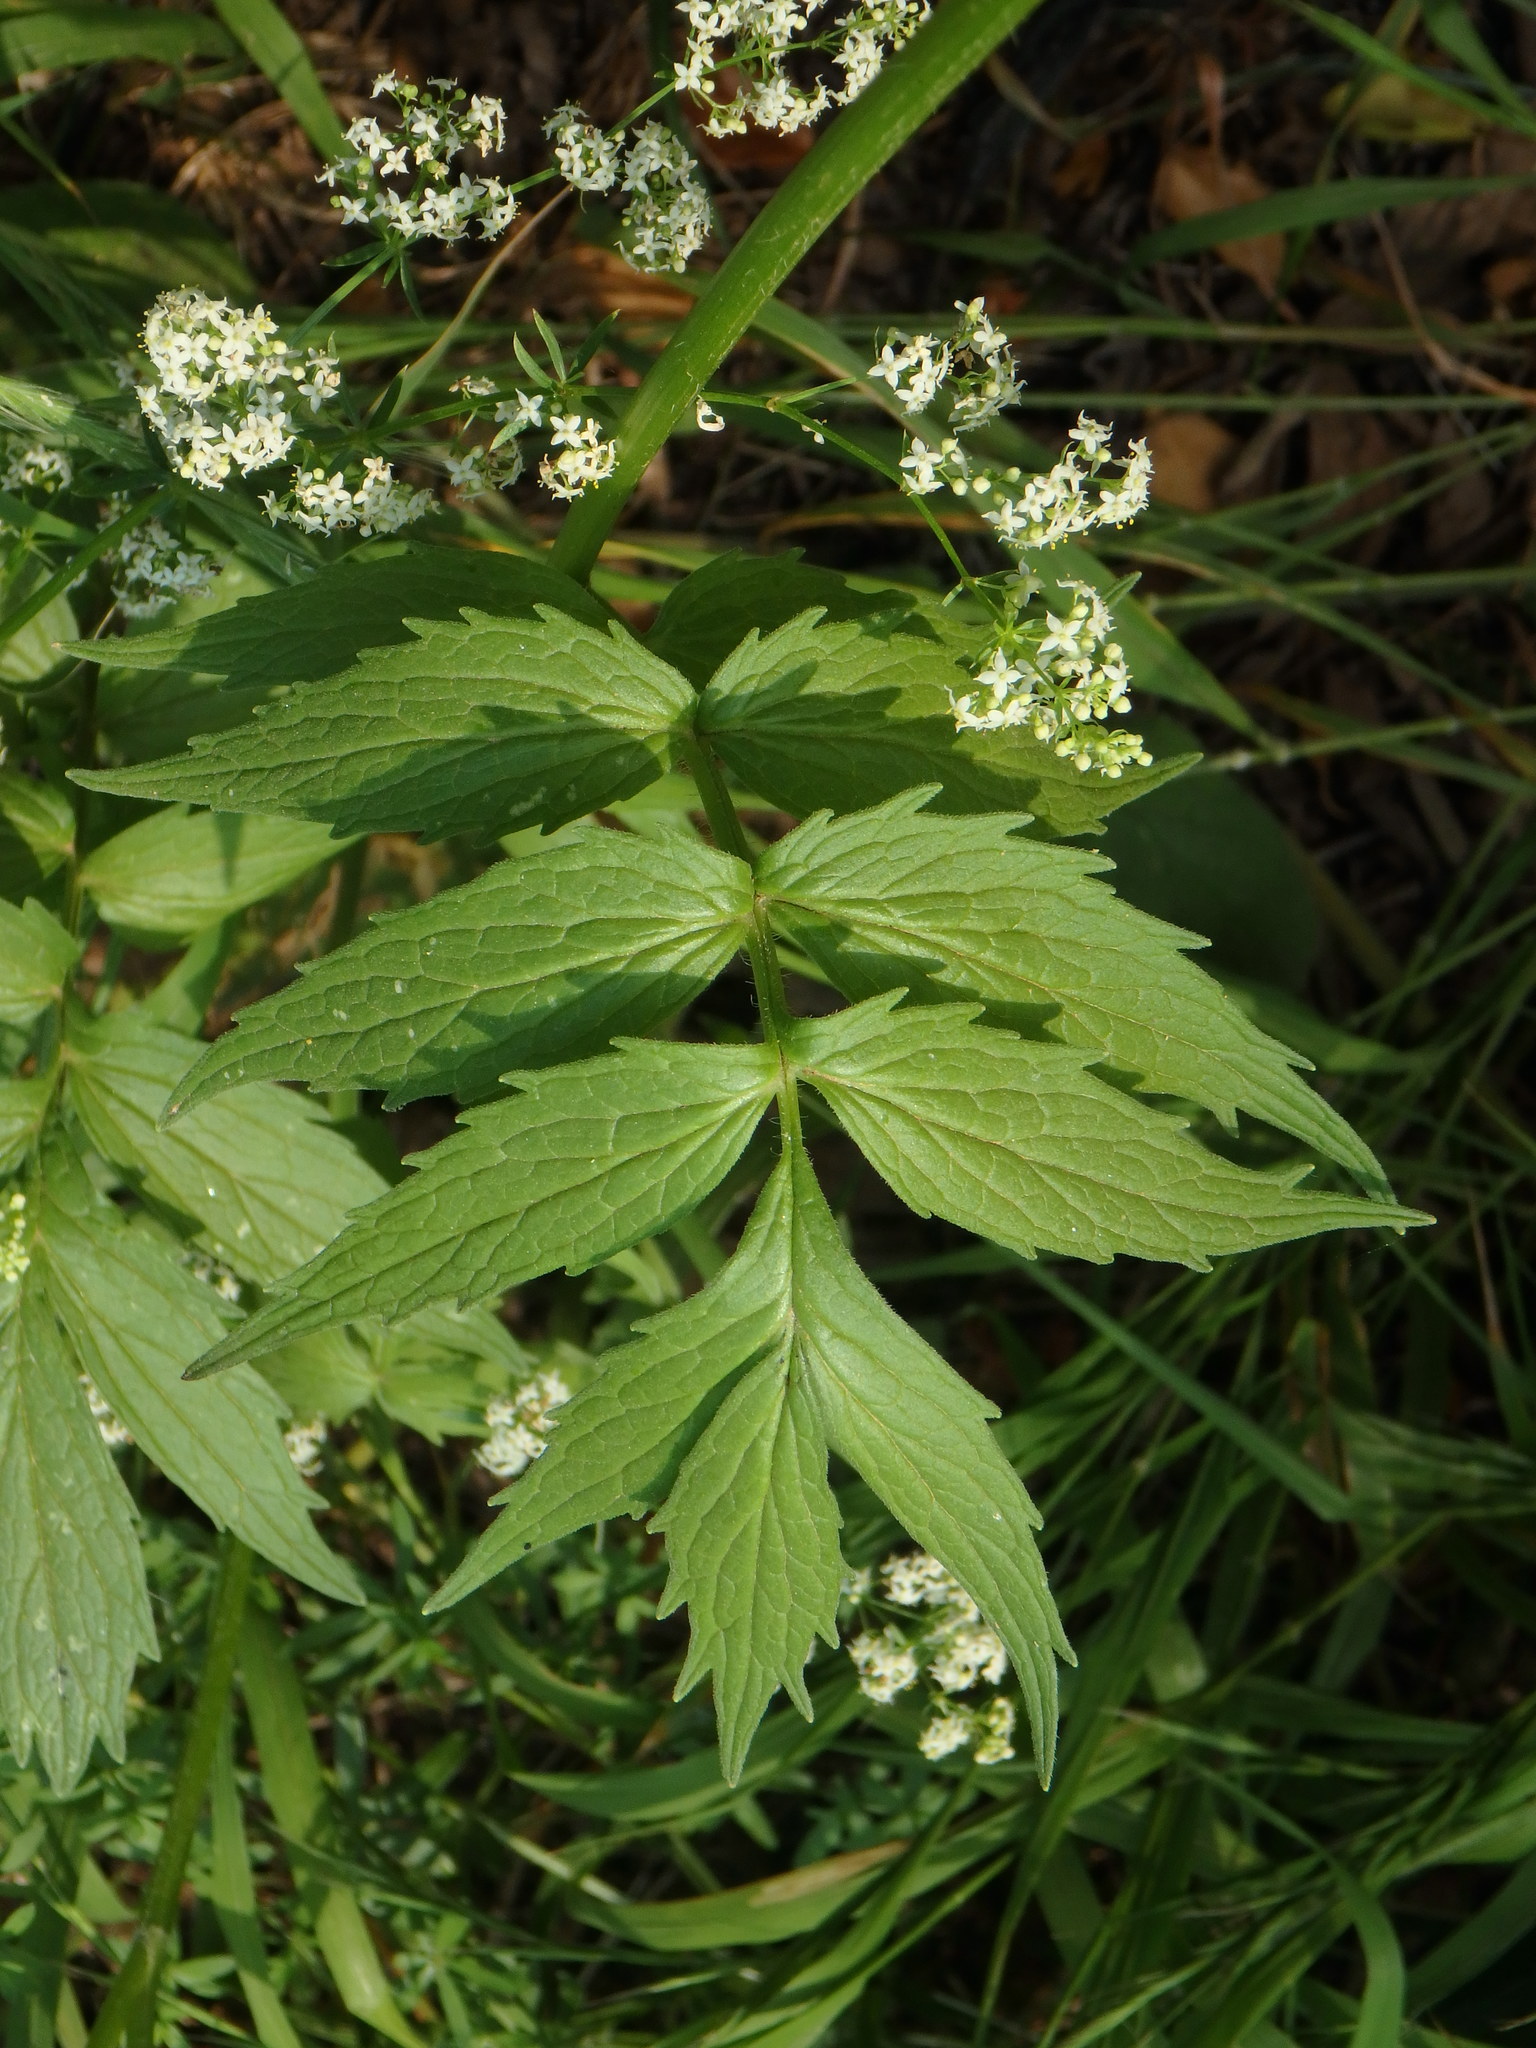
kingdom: Plantae
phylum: Tracheophyta
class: Magnoliopsida
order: Dipsacales
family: Caprifoliaceae
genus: Valeriana
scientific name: Valeriana officinalis
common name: Common valerian
